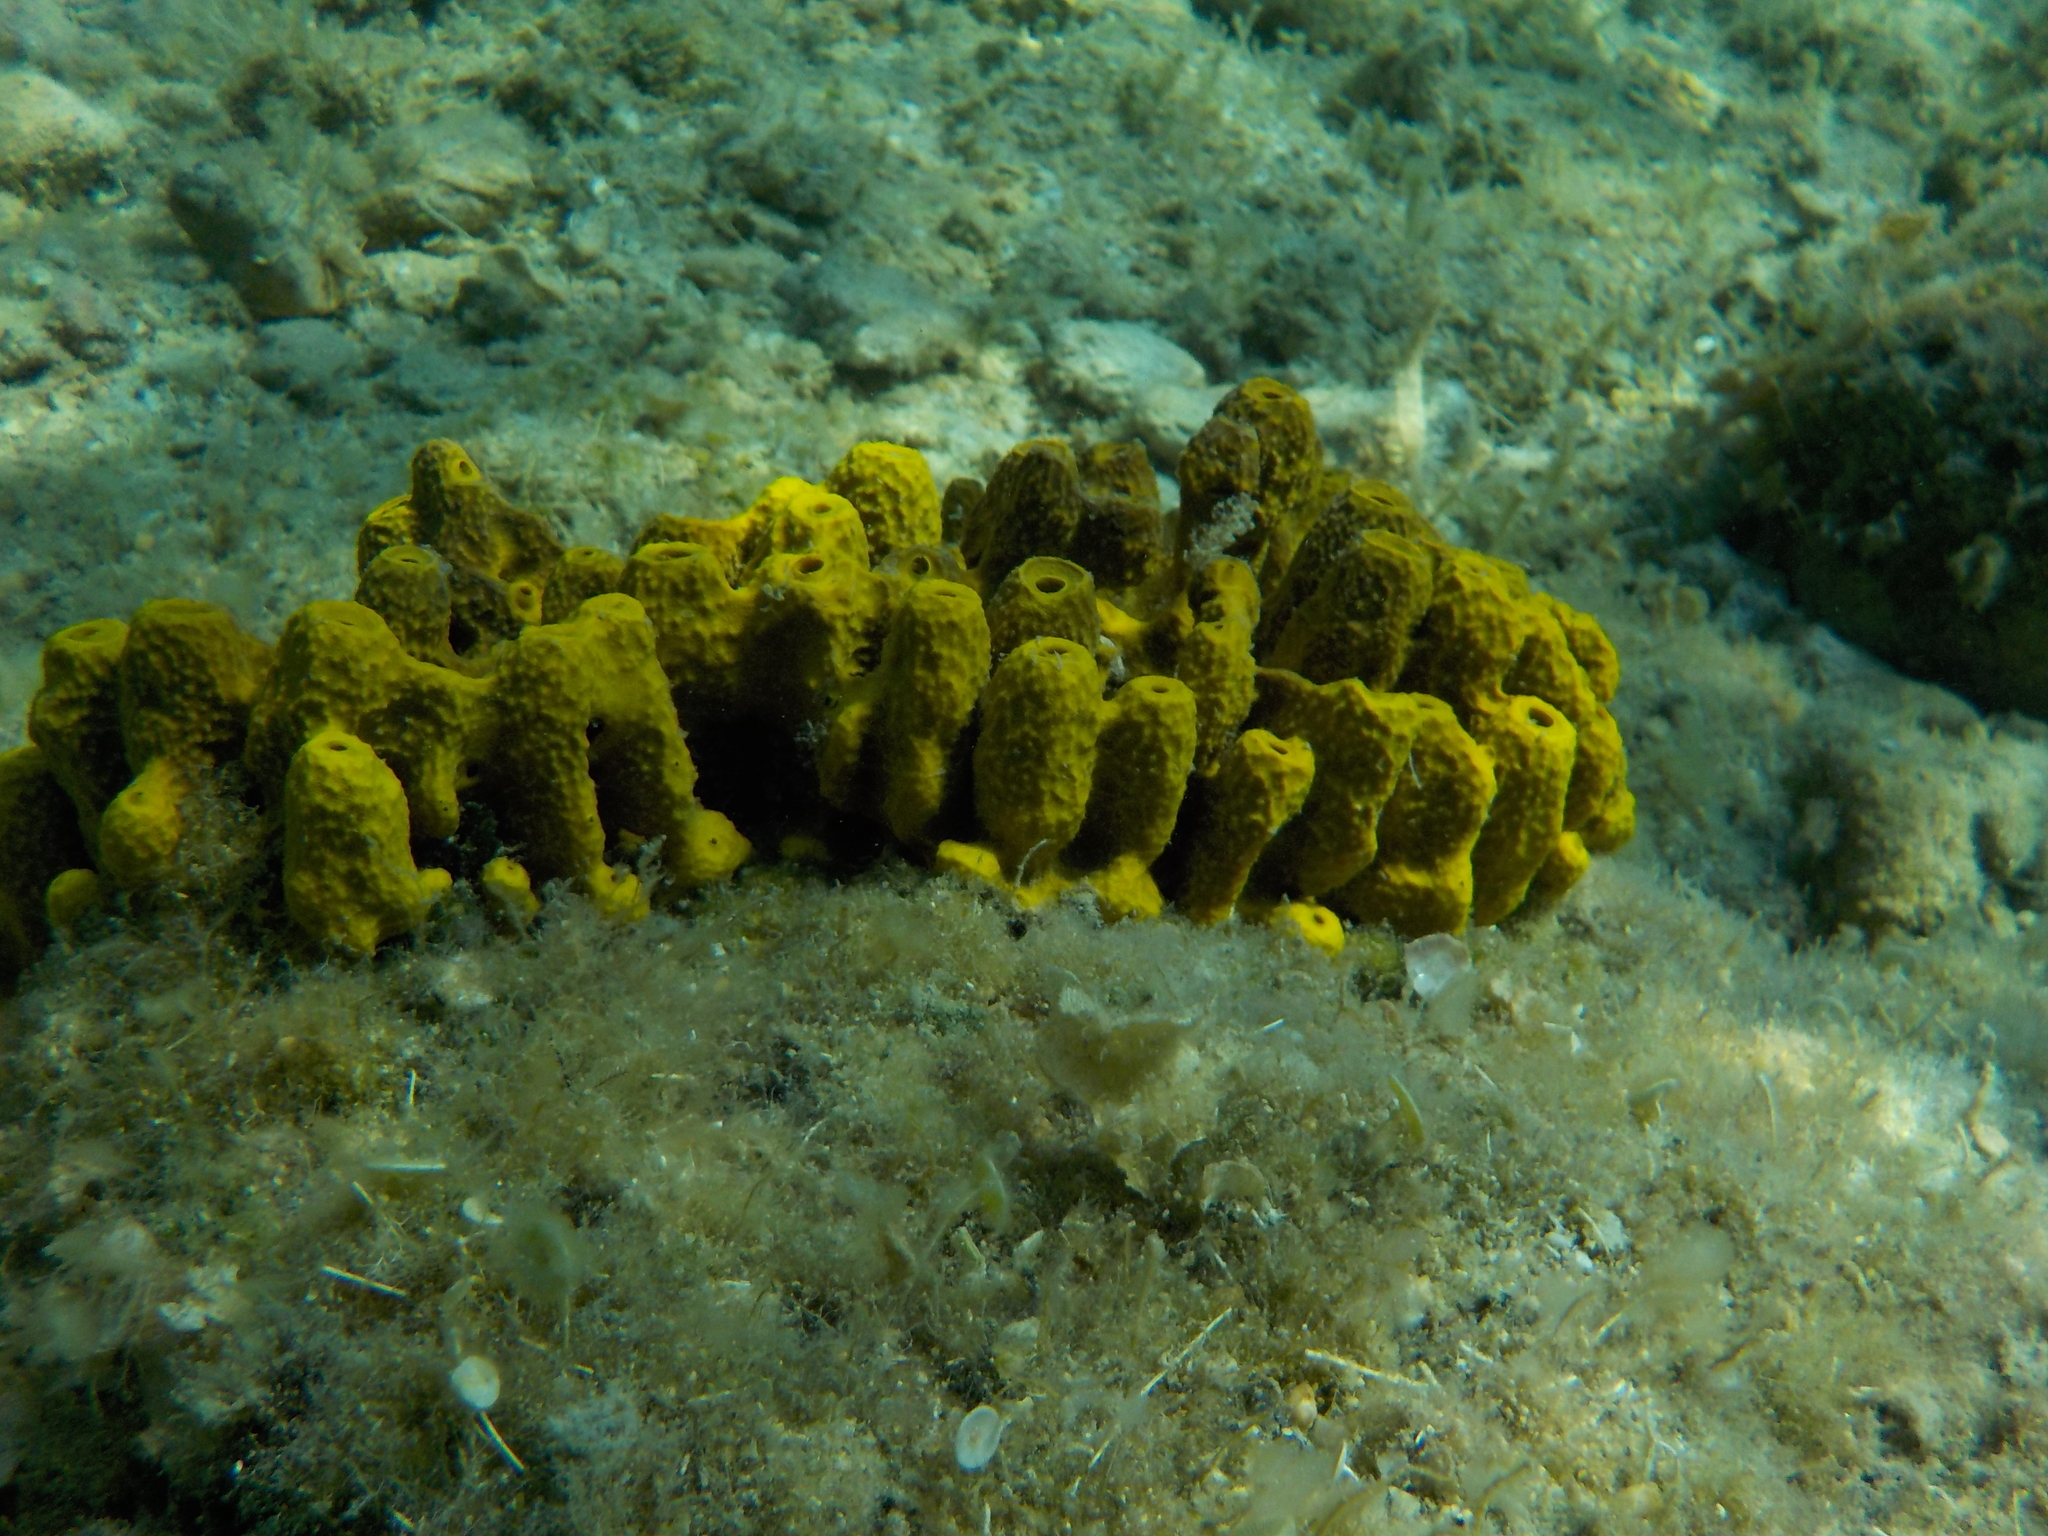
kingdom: Animalia
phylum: Porifera
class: Demospongiae
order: Verongiida
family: Aplysinidae
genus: Aplysina
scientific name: Aplysina aerophoba
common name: Aureate sponge
